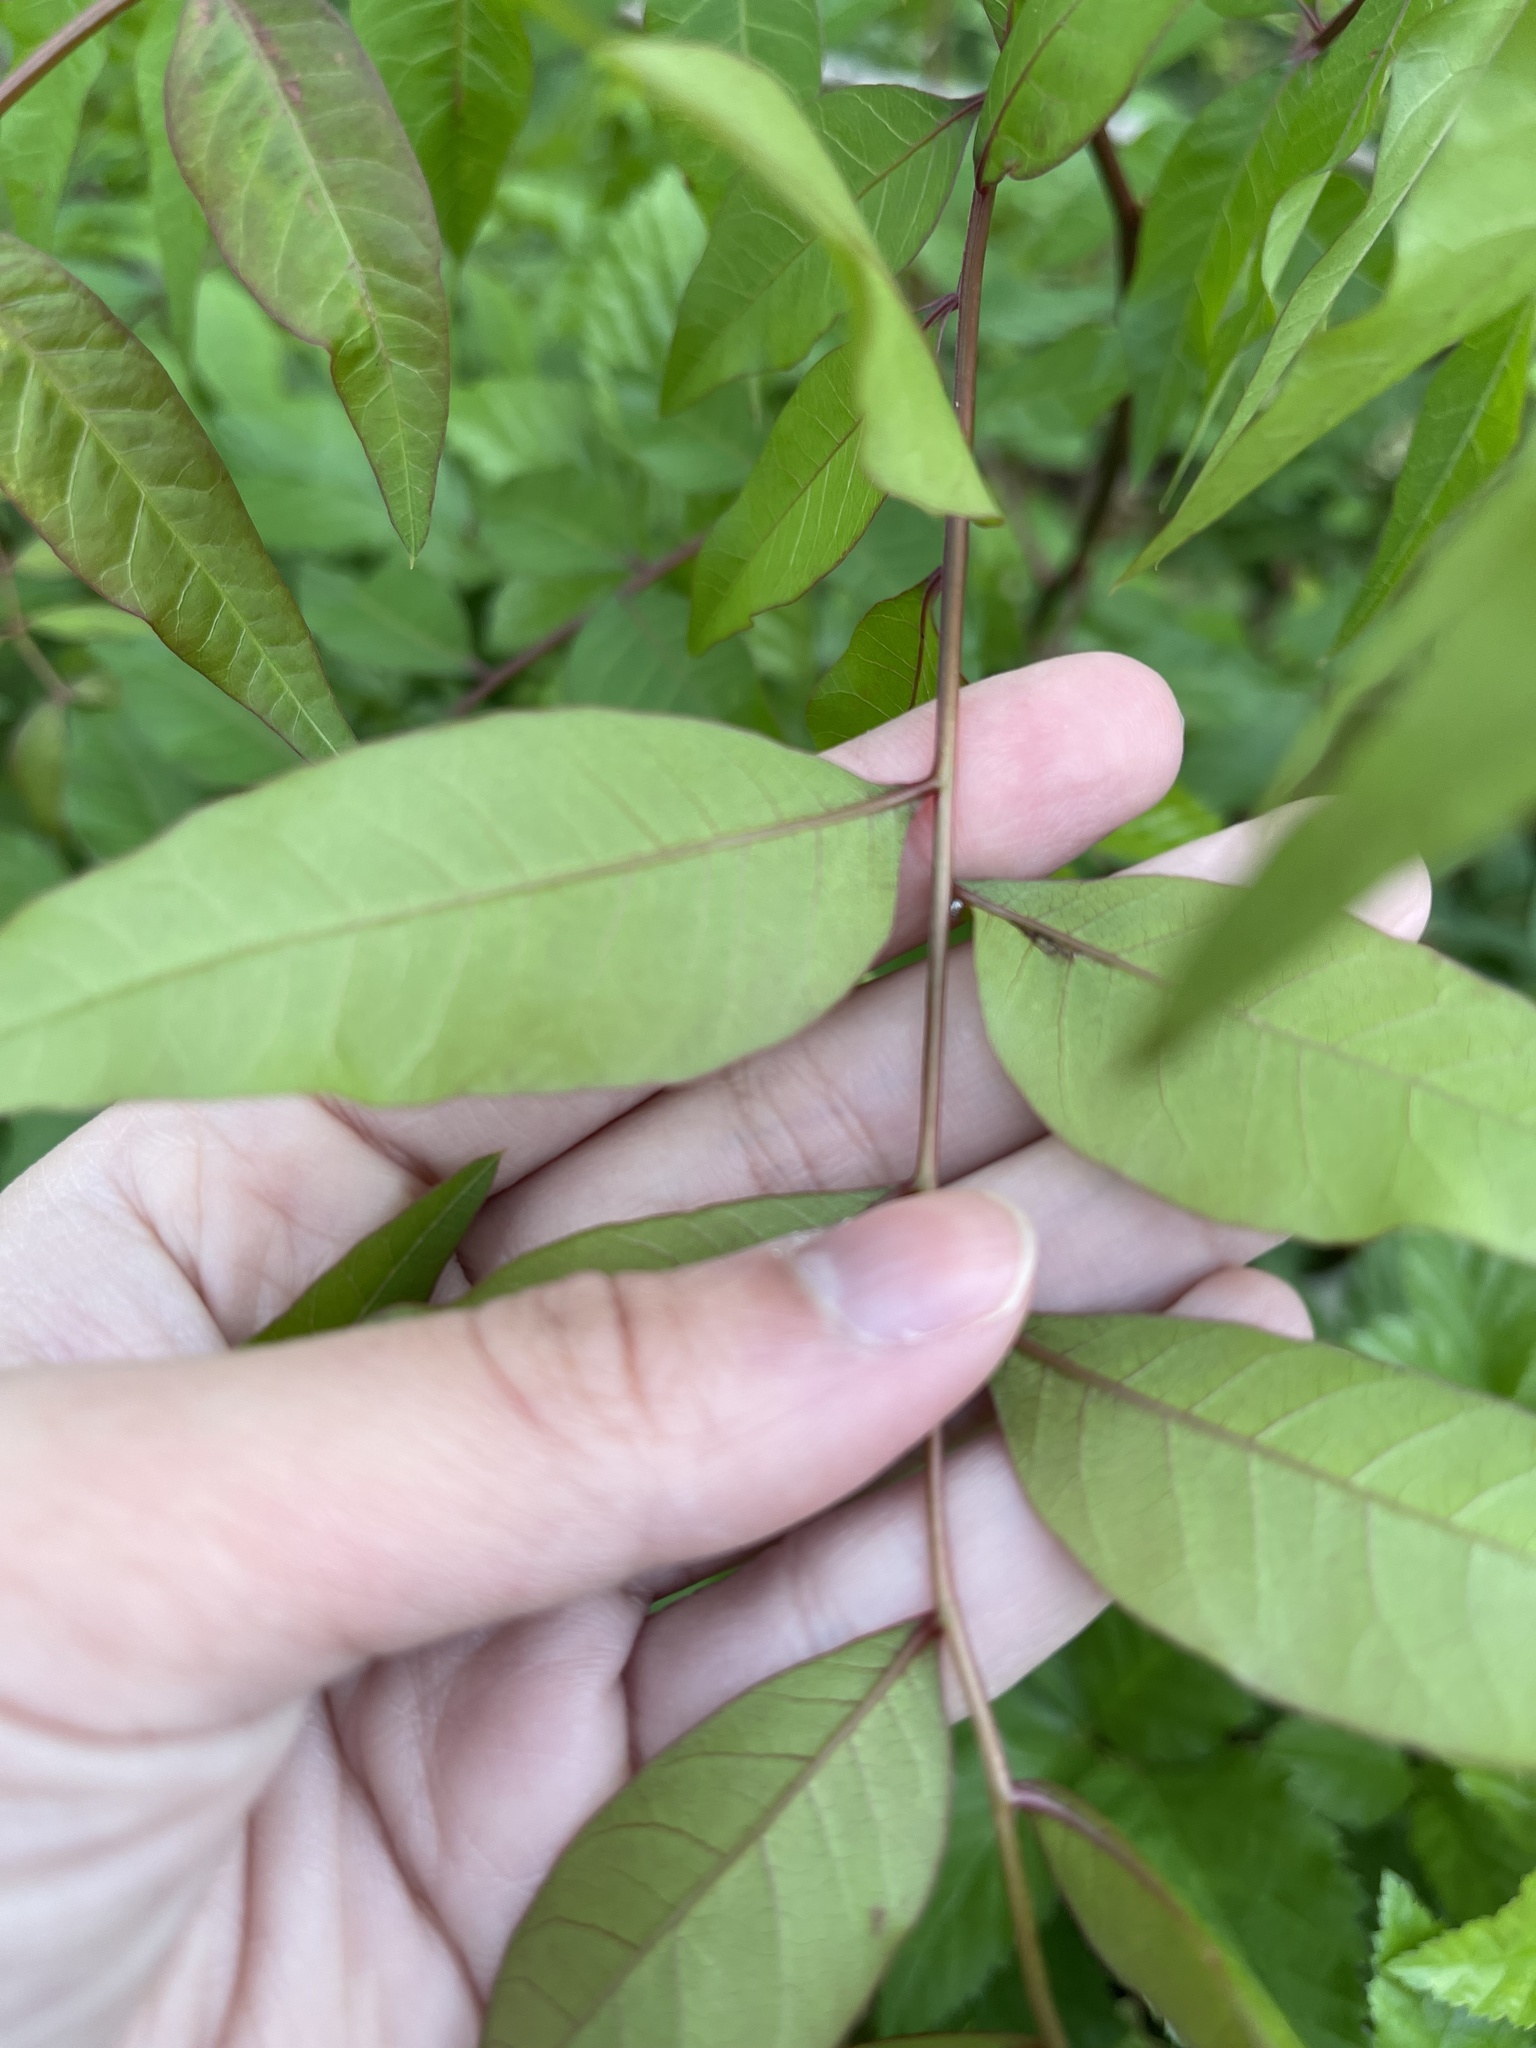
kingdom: Plantae
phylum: Tracheophyta
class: Magnoliopsida
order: Sapindales
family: Anacardiaceae
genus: Pistacia
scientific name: Pistacia chinensis
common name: Chinese pistache
